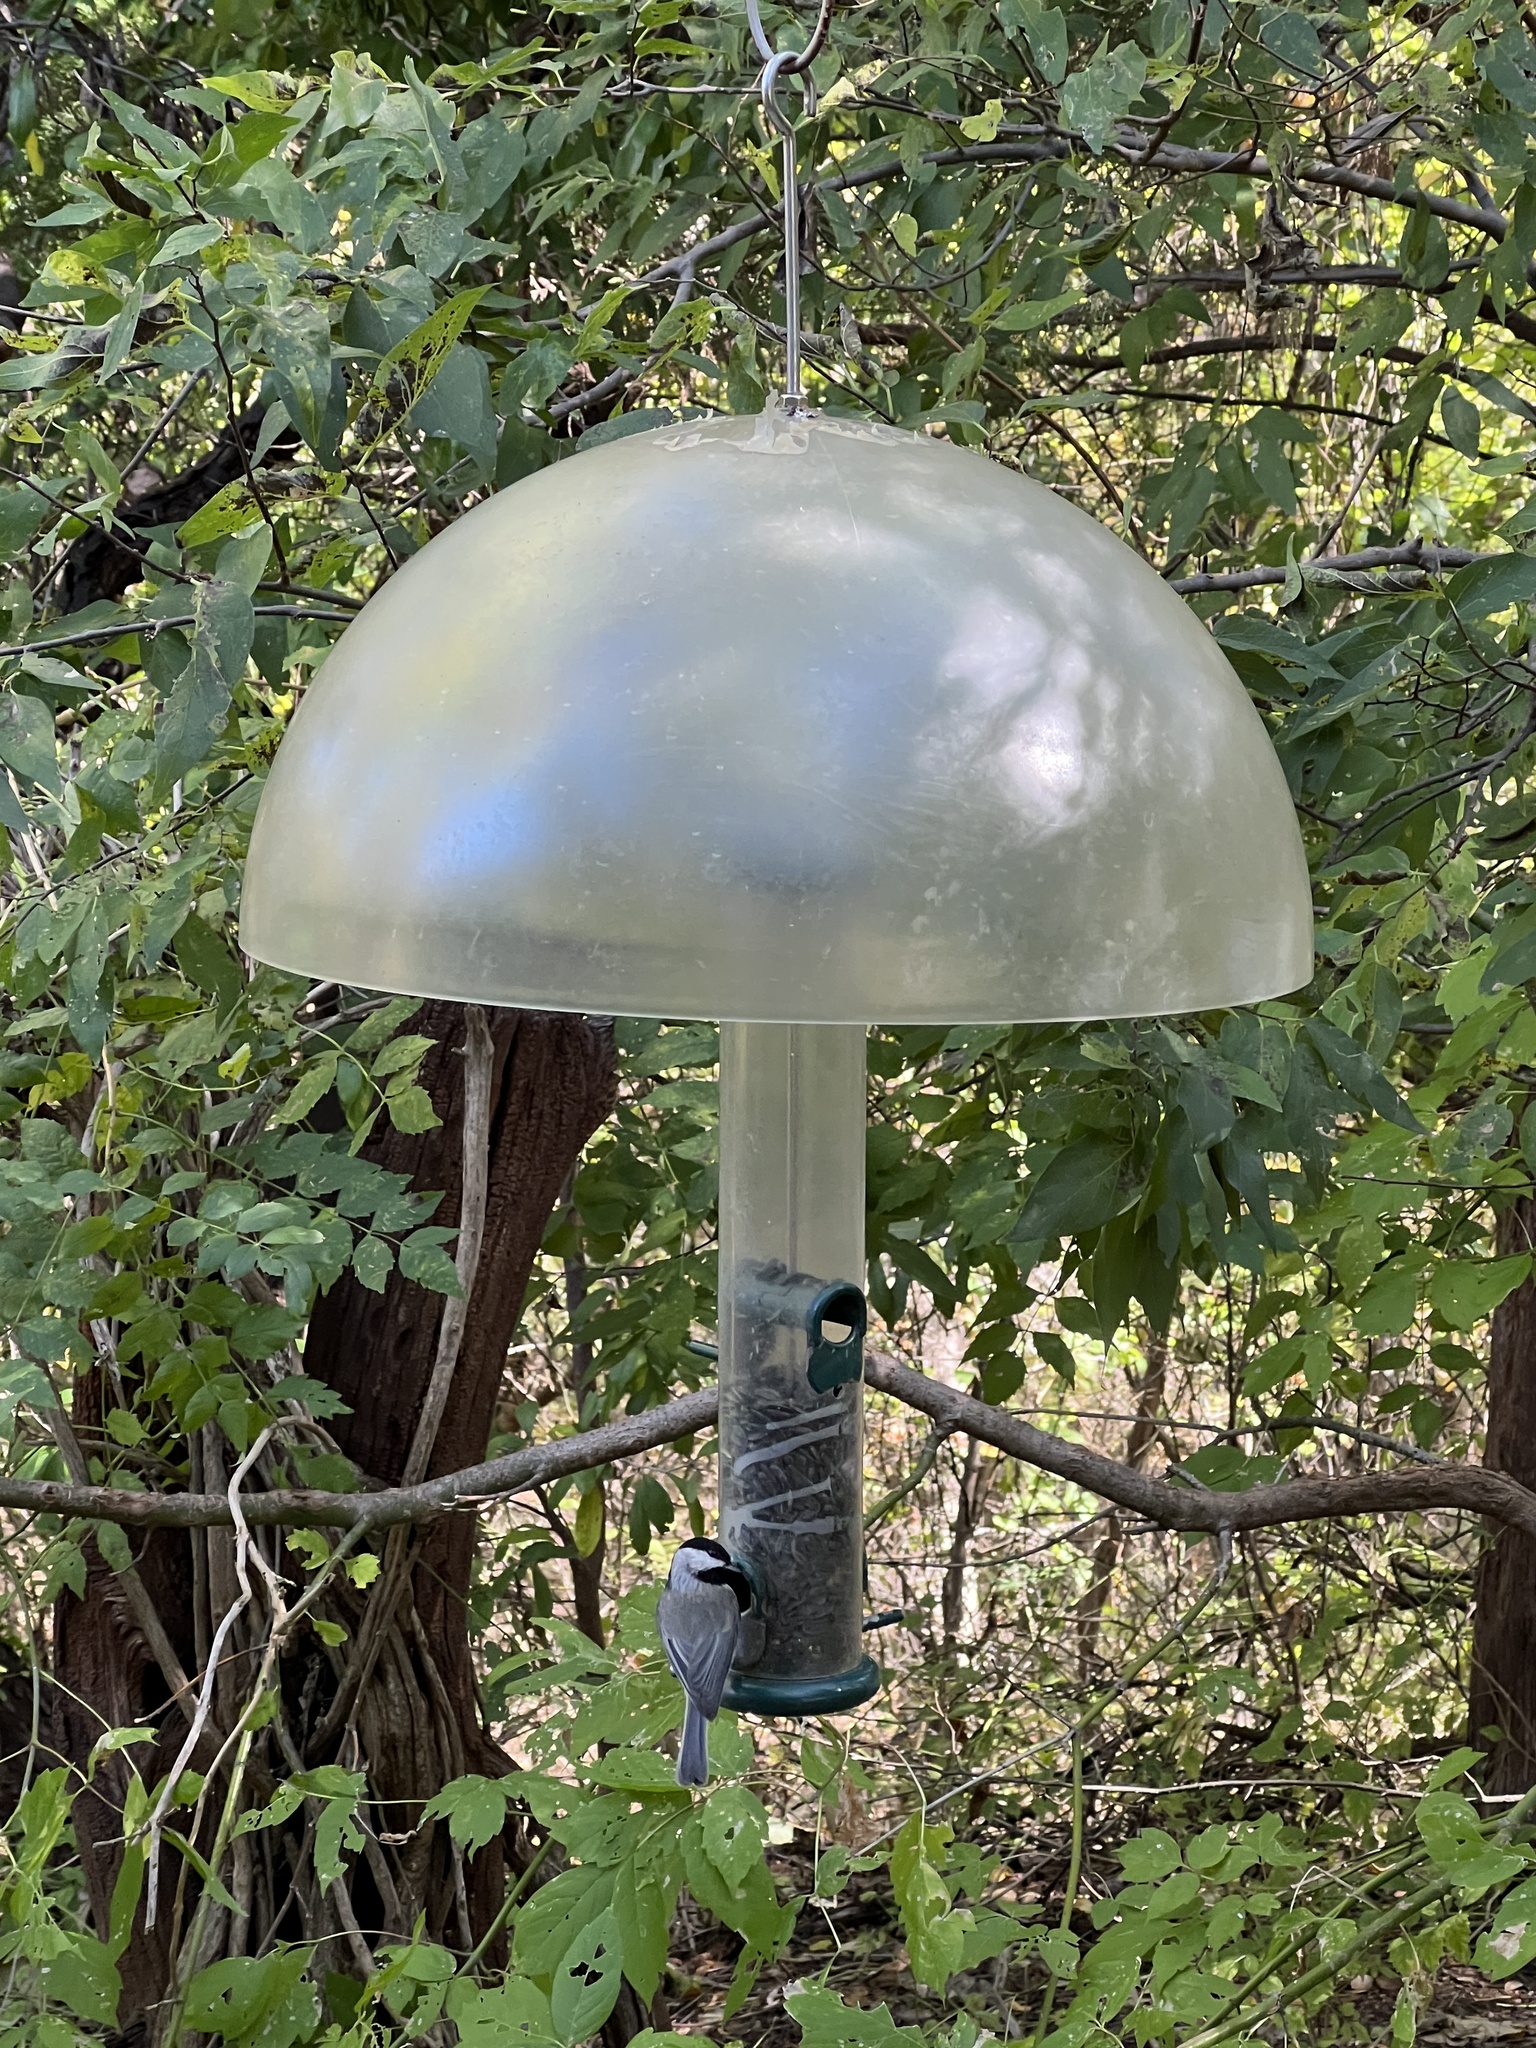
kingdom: Animalia
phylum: Chordata
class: Aves
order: Passeriformes
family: Paridae
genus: Poecile
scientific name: Poecile carolinensis
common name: Carolina chickadee
